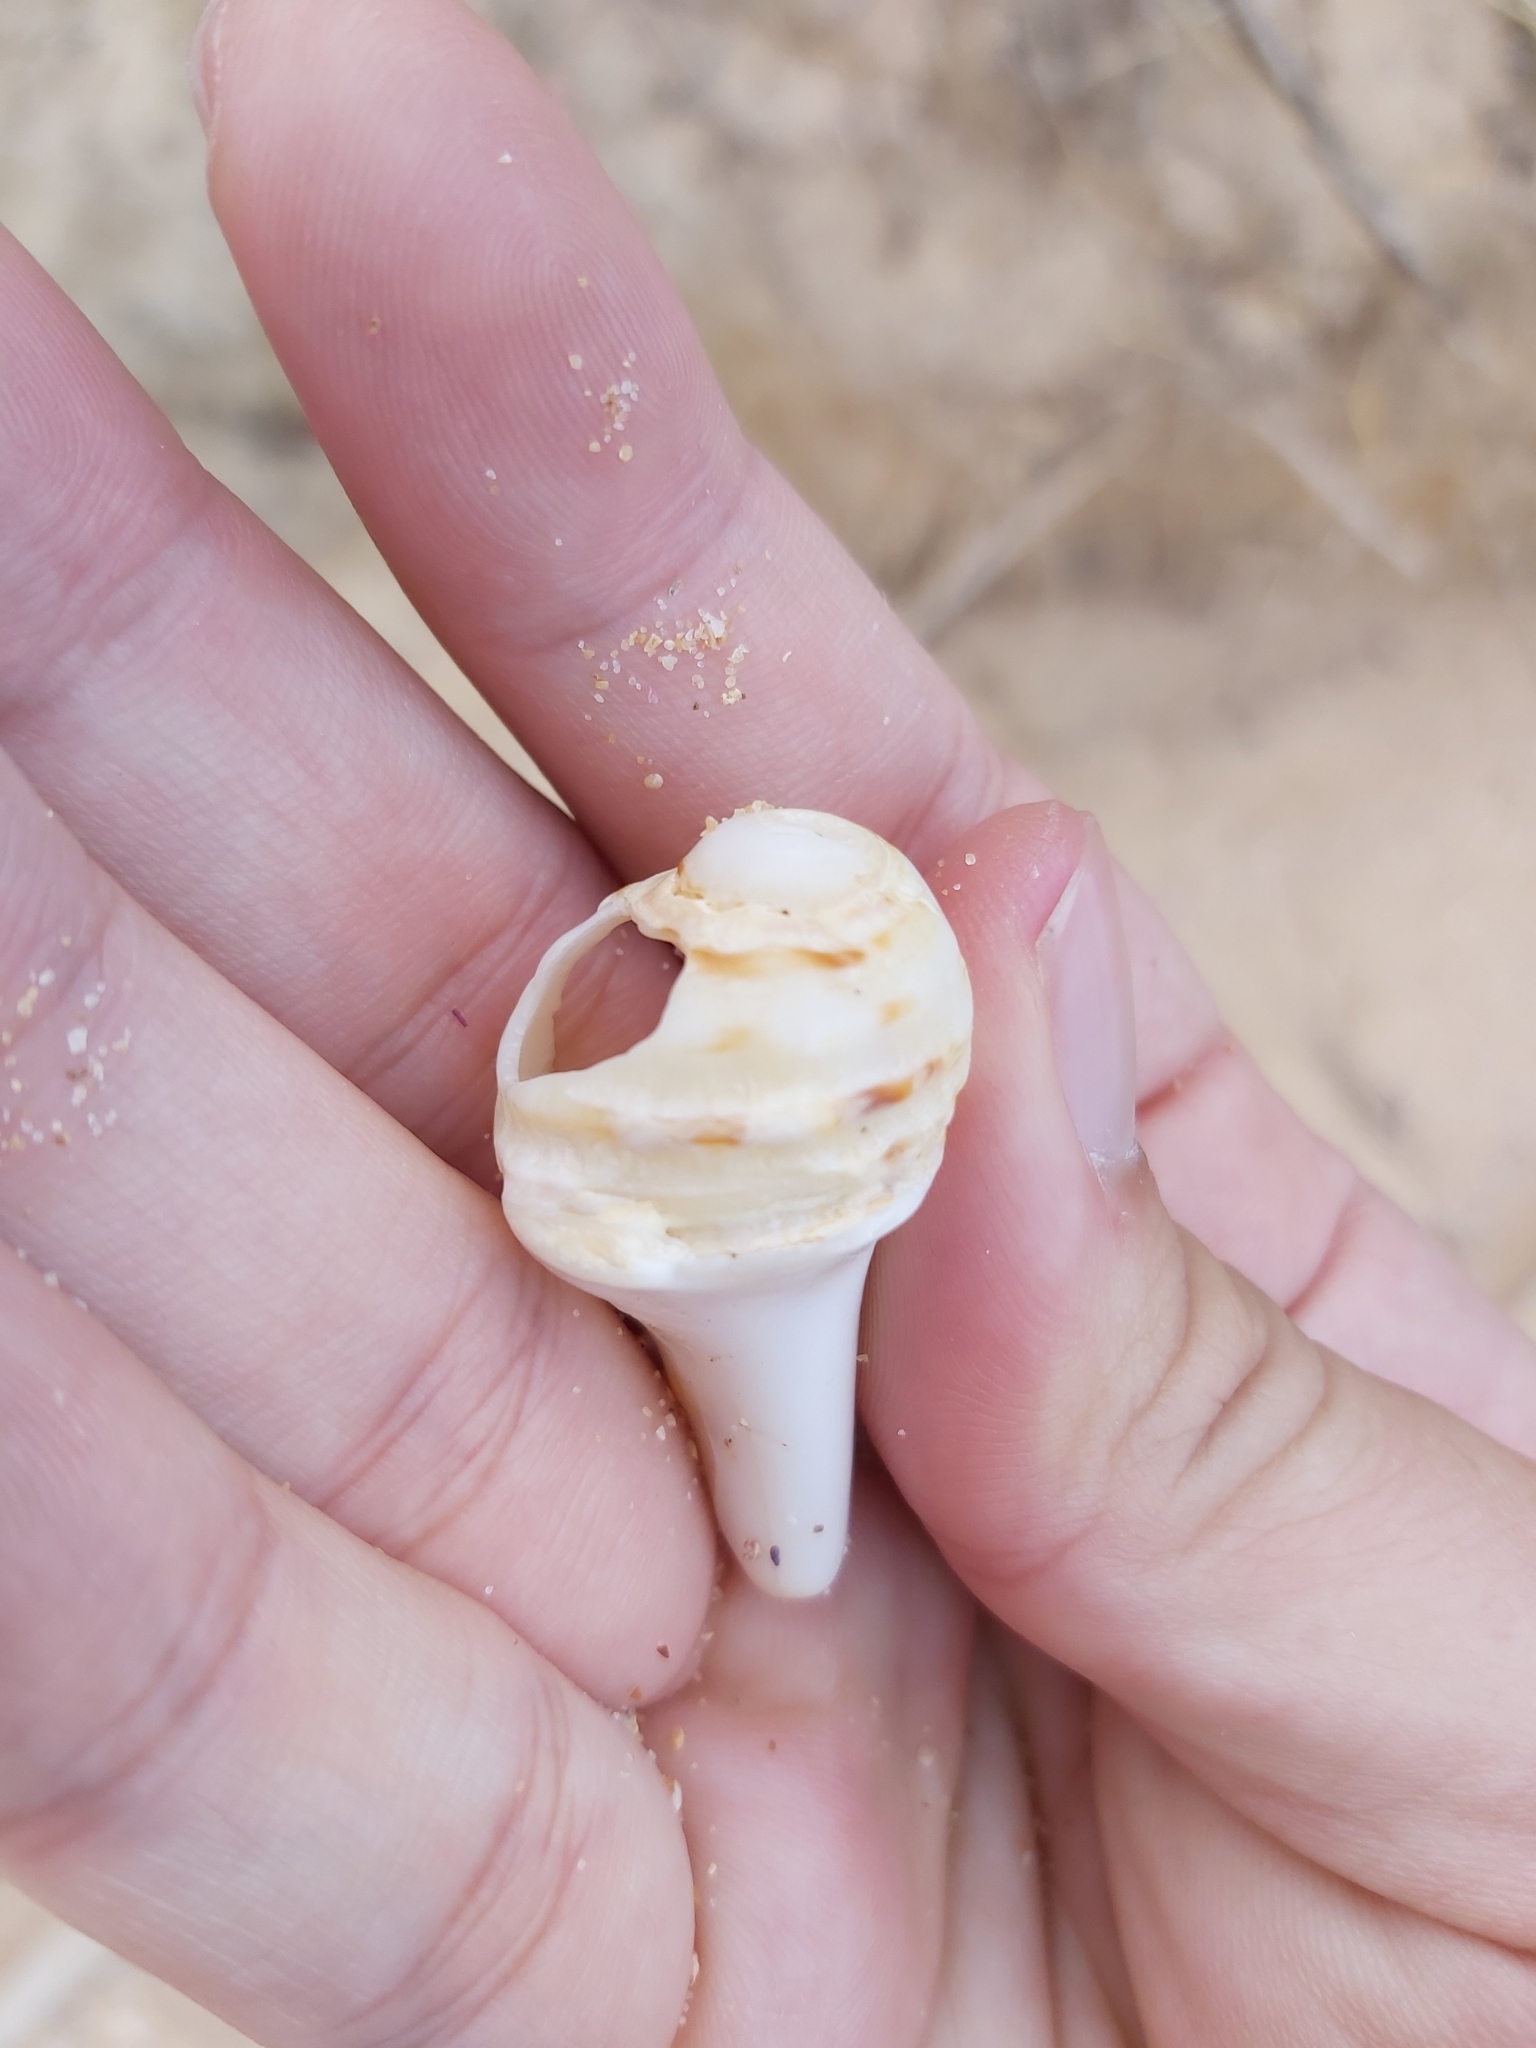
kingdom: Animalia
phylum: Mollusca
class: Gastropoda
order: Neogastropoda
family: Muricidae
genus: Dicathais
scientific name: Dicathais orbita
